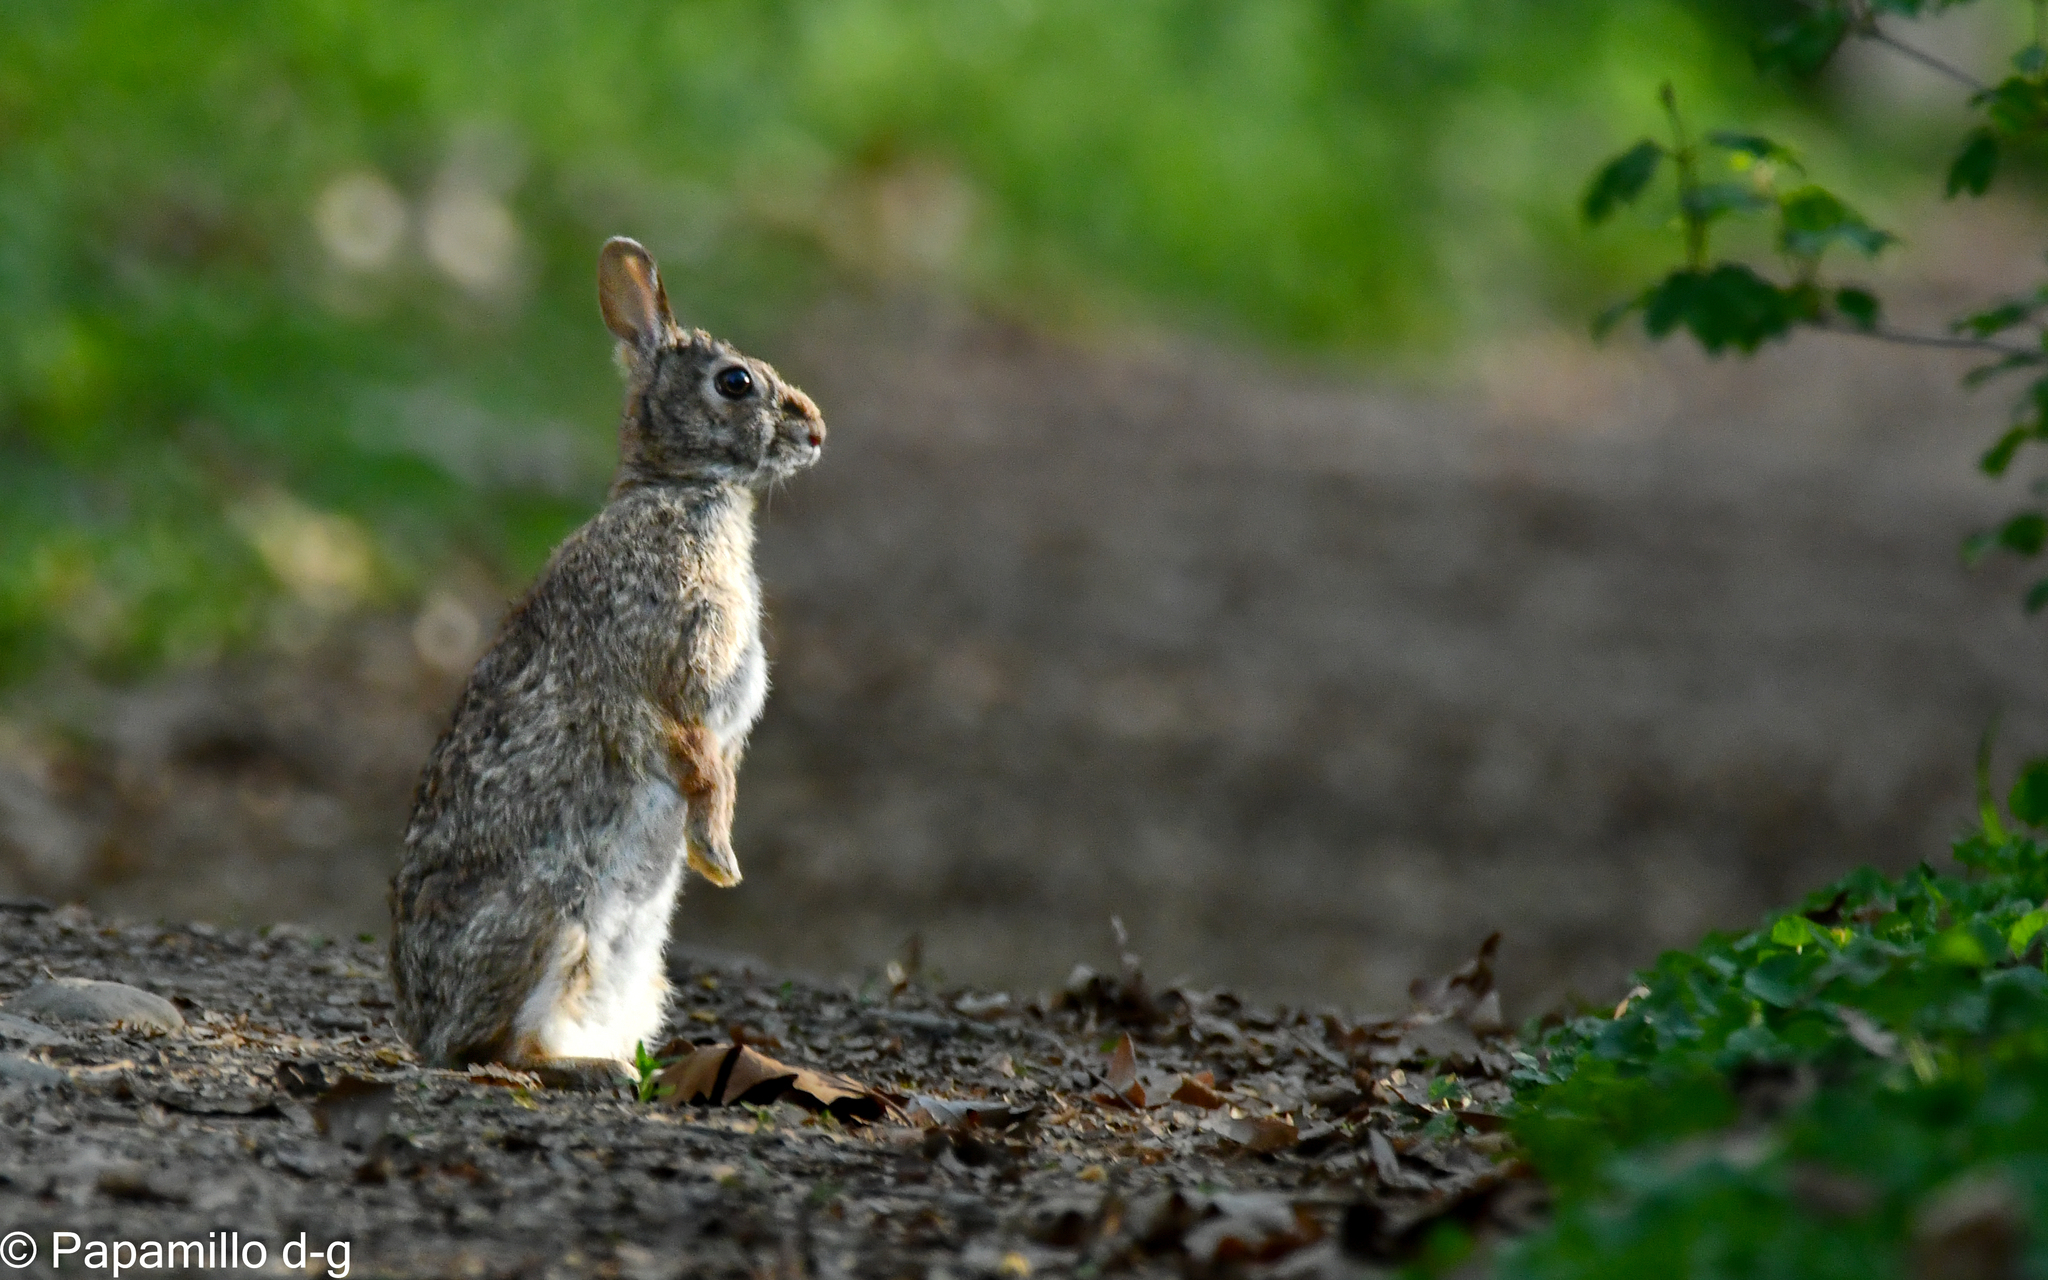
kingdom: Animalia
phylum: Chordata
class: Mammalia
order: Lagomorpha
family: Leporidae
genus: Sylvilagus
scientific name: Sylvilagus floridanus
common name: Eastern cottontail
